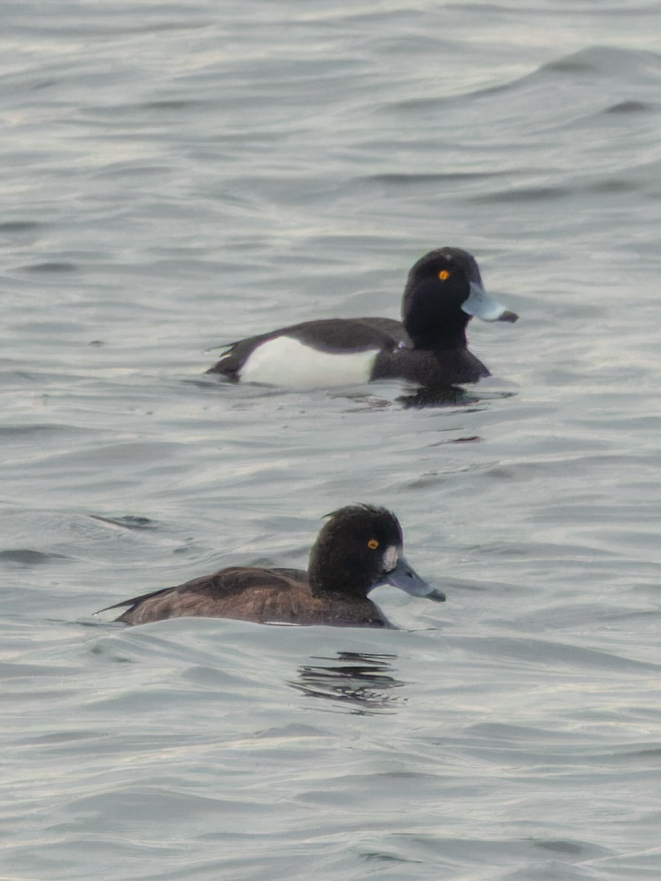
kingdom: Animalia
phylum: Chordata
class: Aves
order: Anseriformes
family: Anatidae
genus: Aythya
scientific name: Aythya fuligula
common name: Tufted duck
